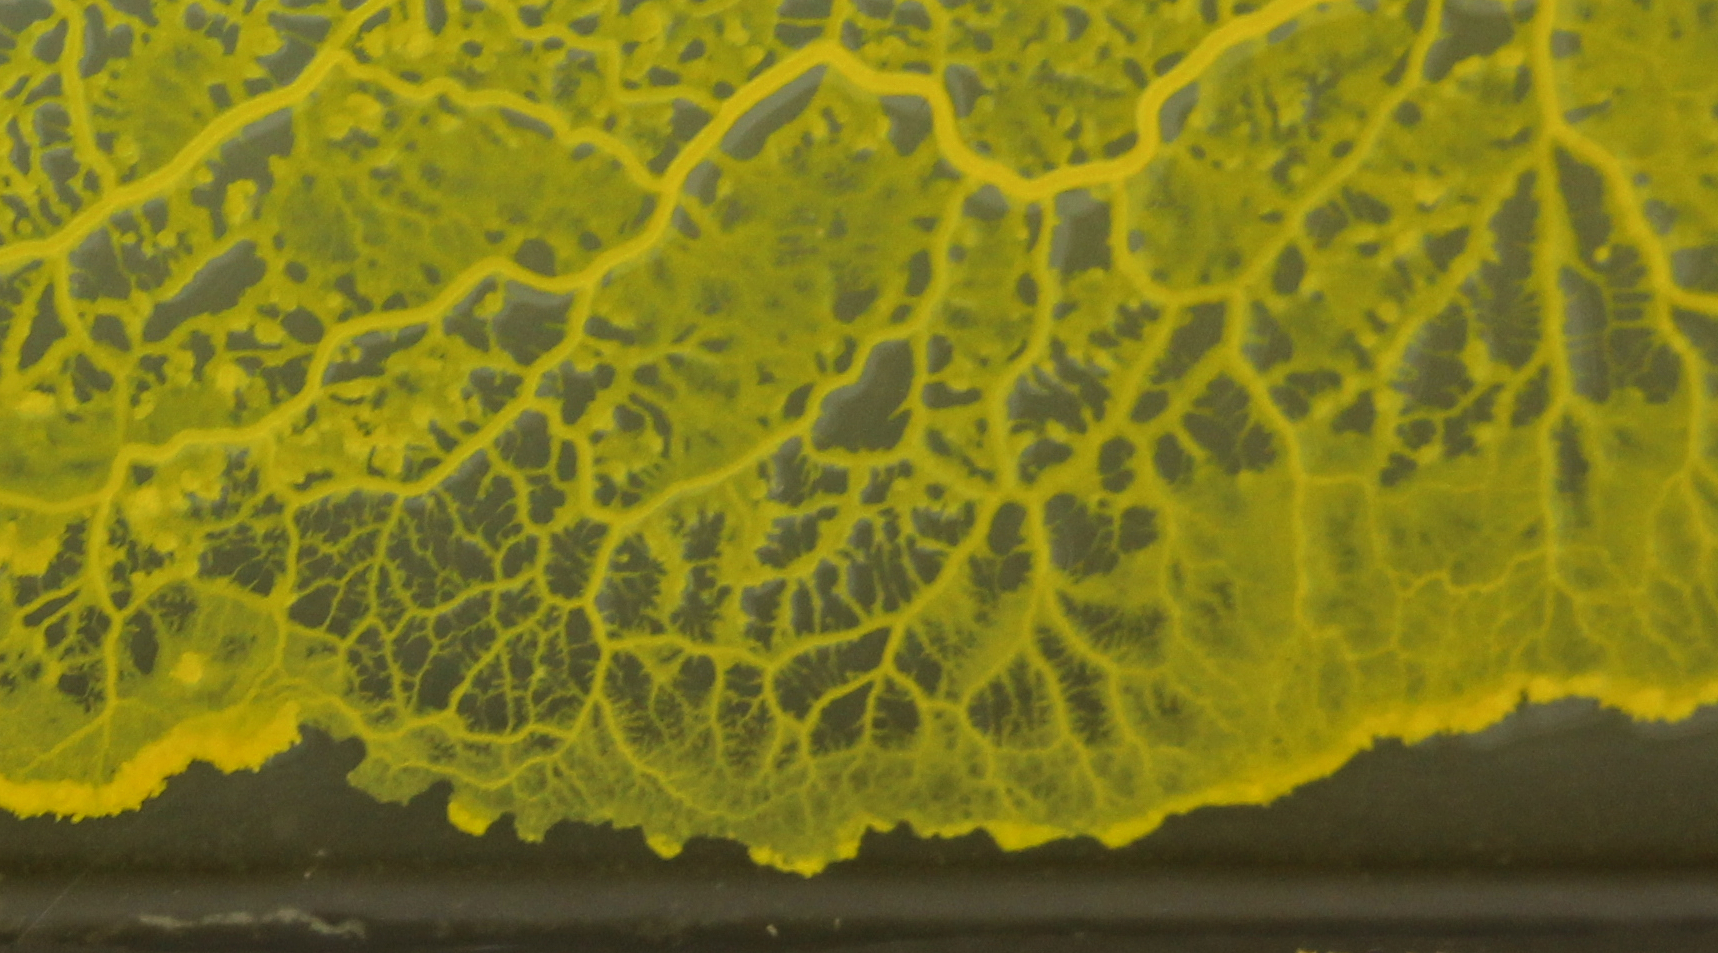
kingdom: Protozoa
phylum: Mycetozoa
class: Myxomycetes
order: Physarales
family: Physaraceae
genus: Badhamia
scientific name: Badhamia utricularis
